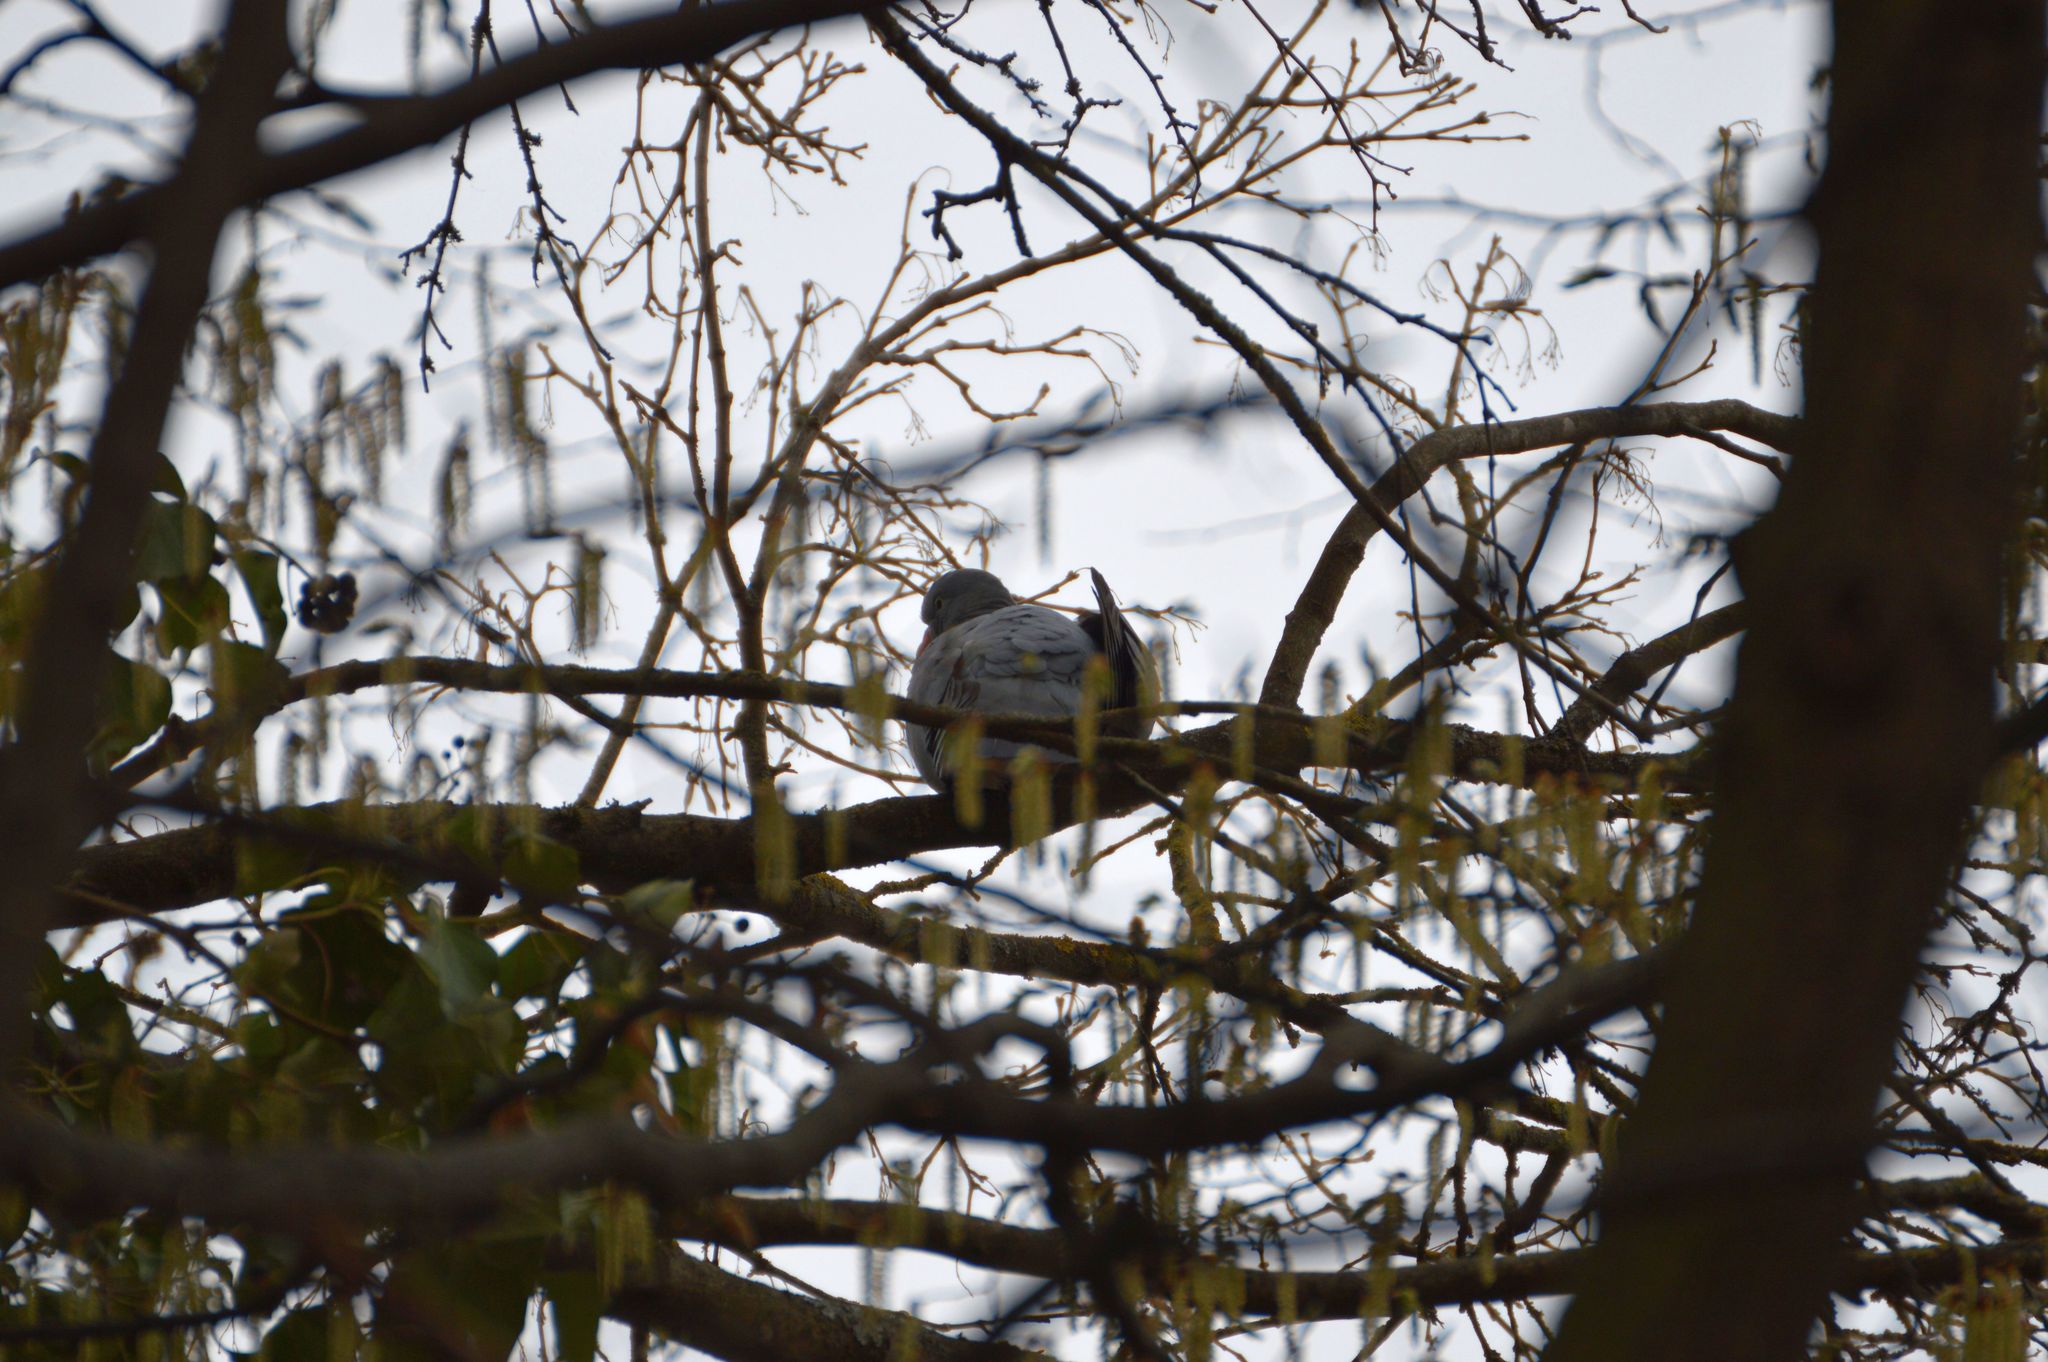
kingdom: Animalia
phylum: Chordata
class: Aves
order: Columbiformes
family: Columbidae
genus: Columba
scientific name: Columba palumbus
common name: Common wood pigeon
